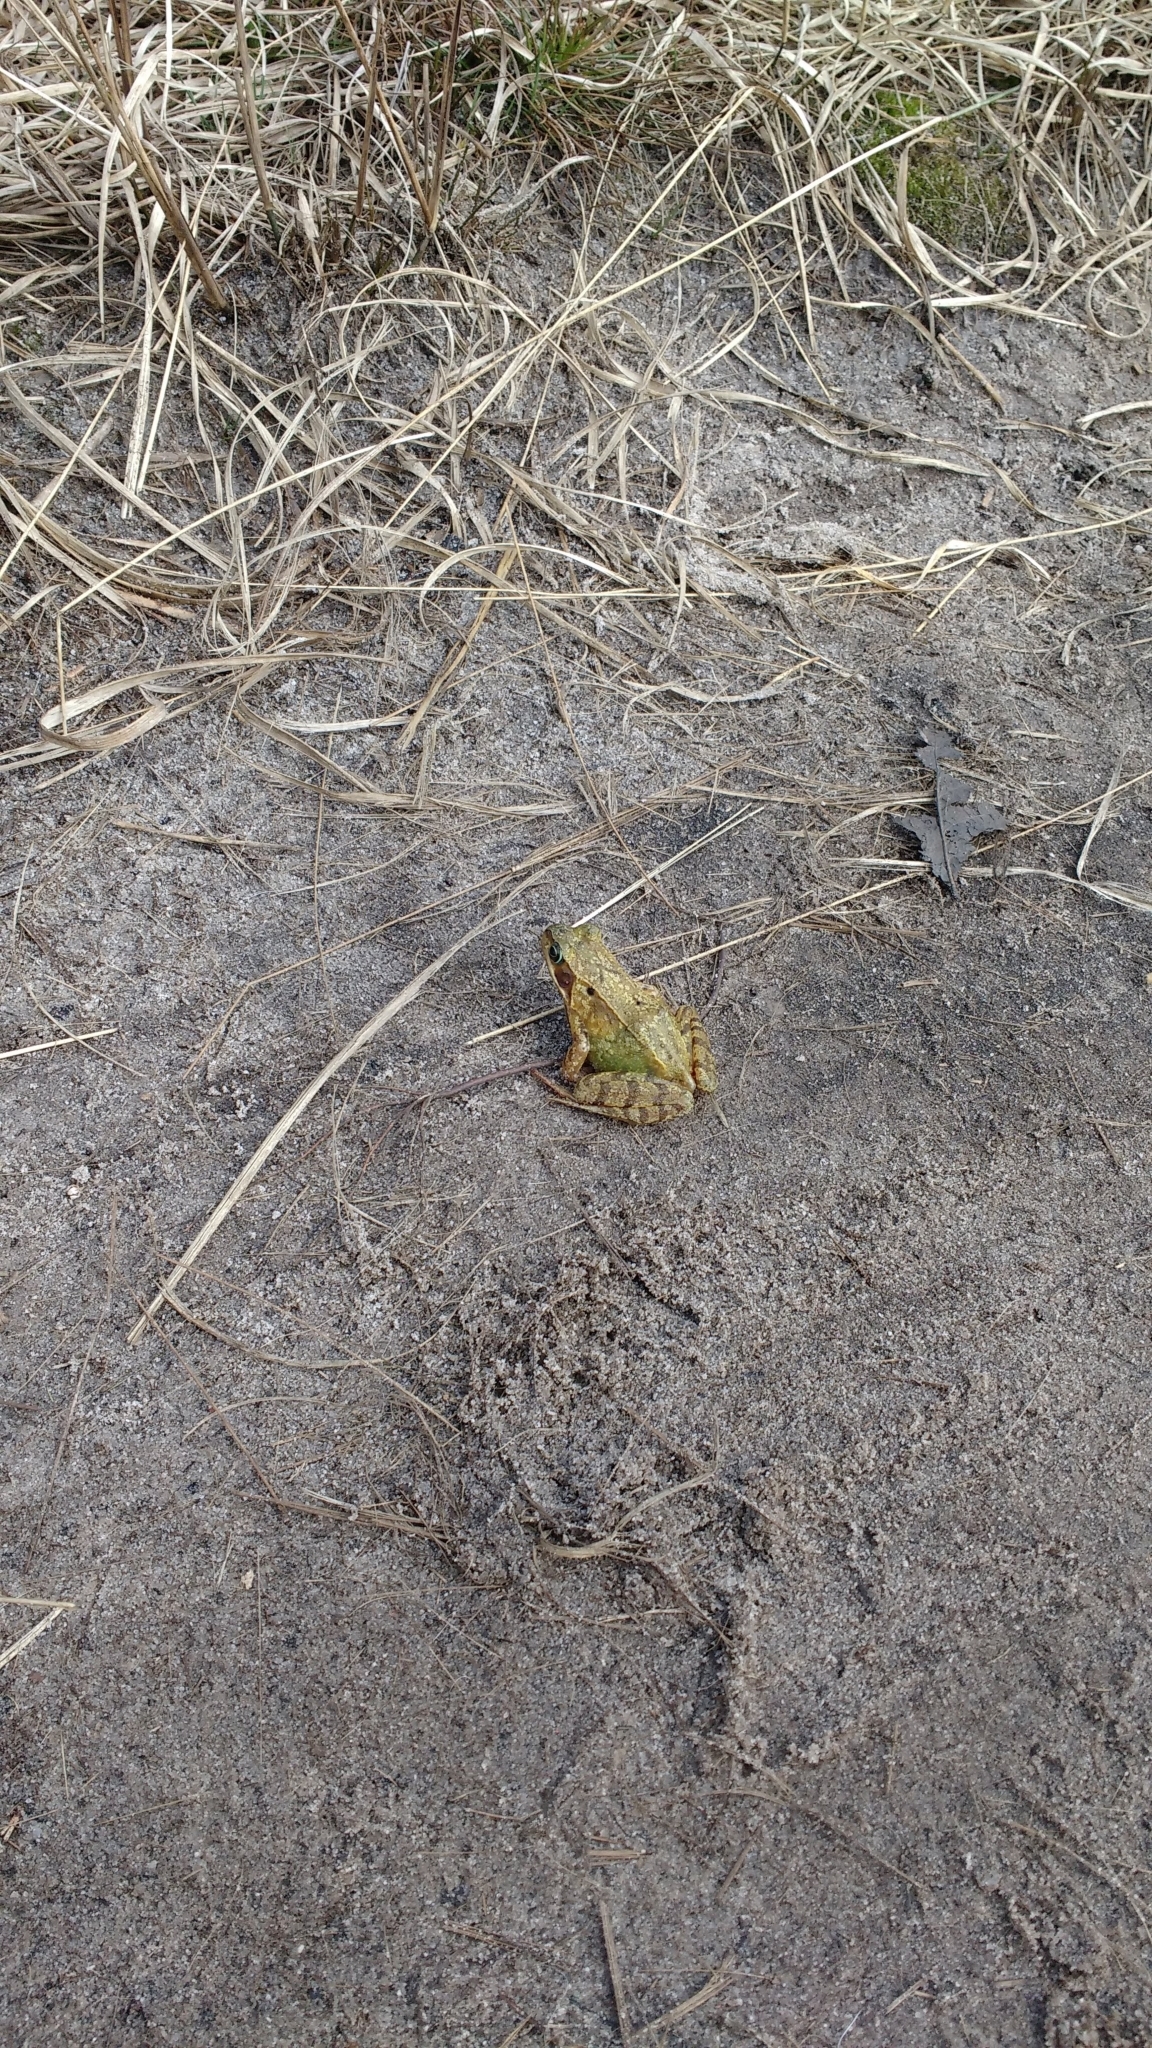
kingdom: Animalia
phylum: Chordata
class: Amphibia
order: Anura
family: Ranidae
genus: Rana
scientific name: Rana temporaria
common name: Common frog
